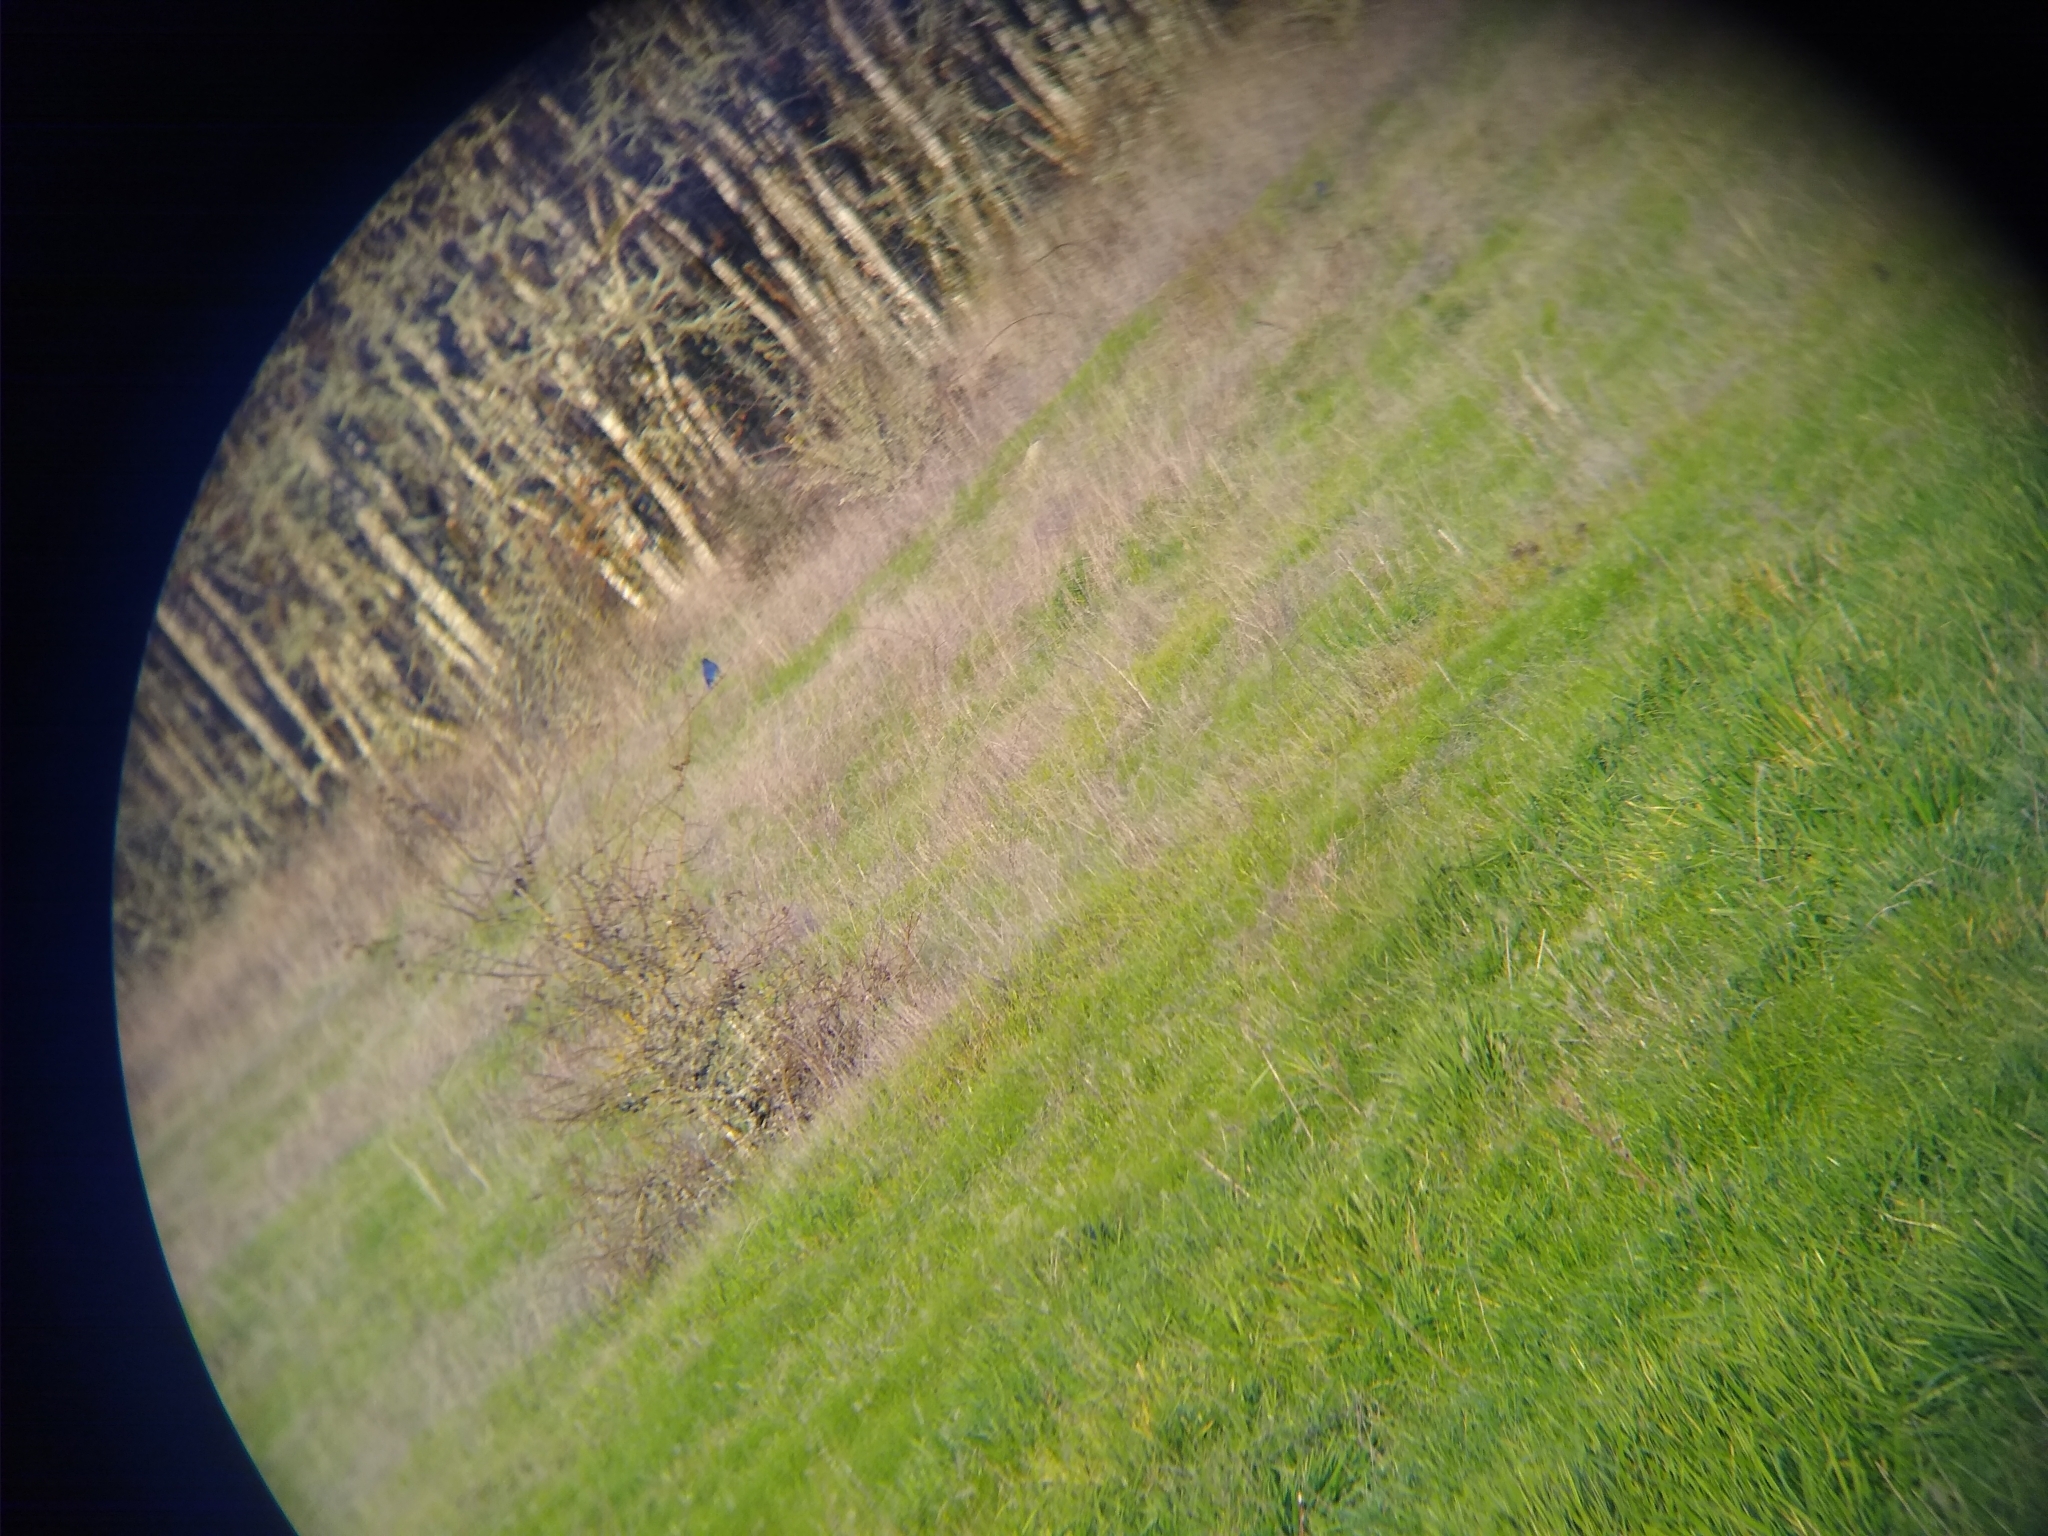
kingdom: Animalia
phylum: Chordata
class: Aves
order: Passeriformes
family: Turdidae
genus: Sialia
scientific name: Sialia mexicana
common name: Western bluebird
